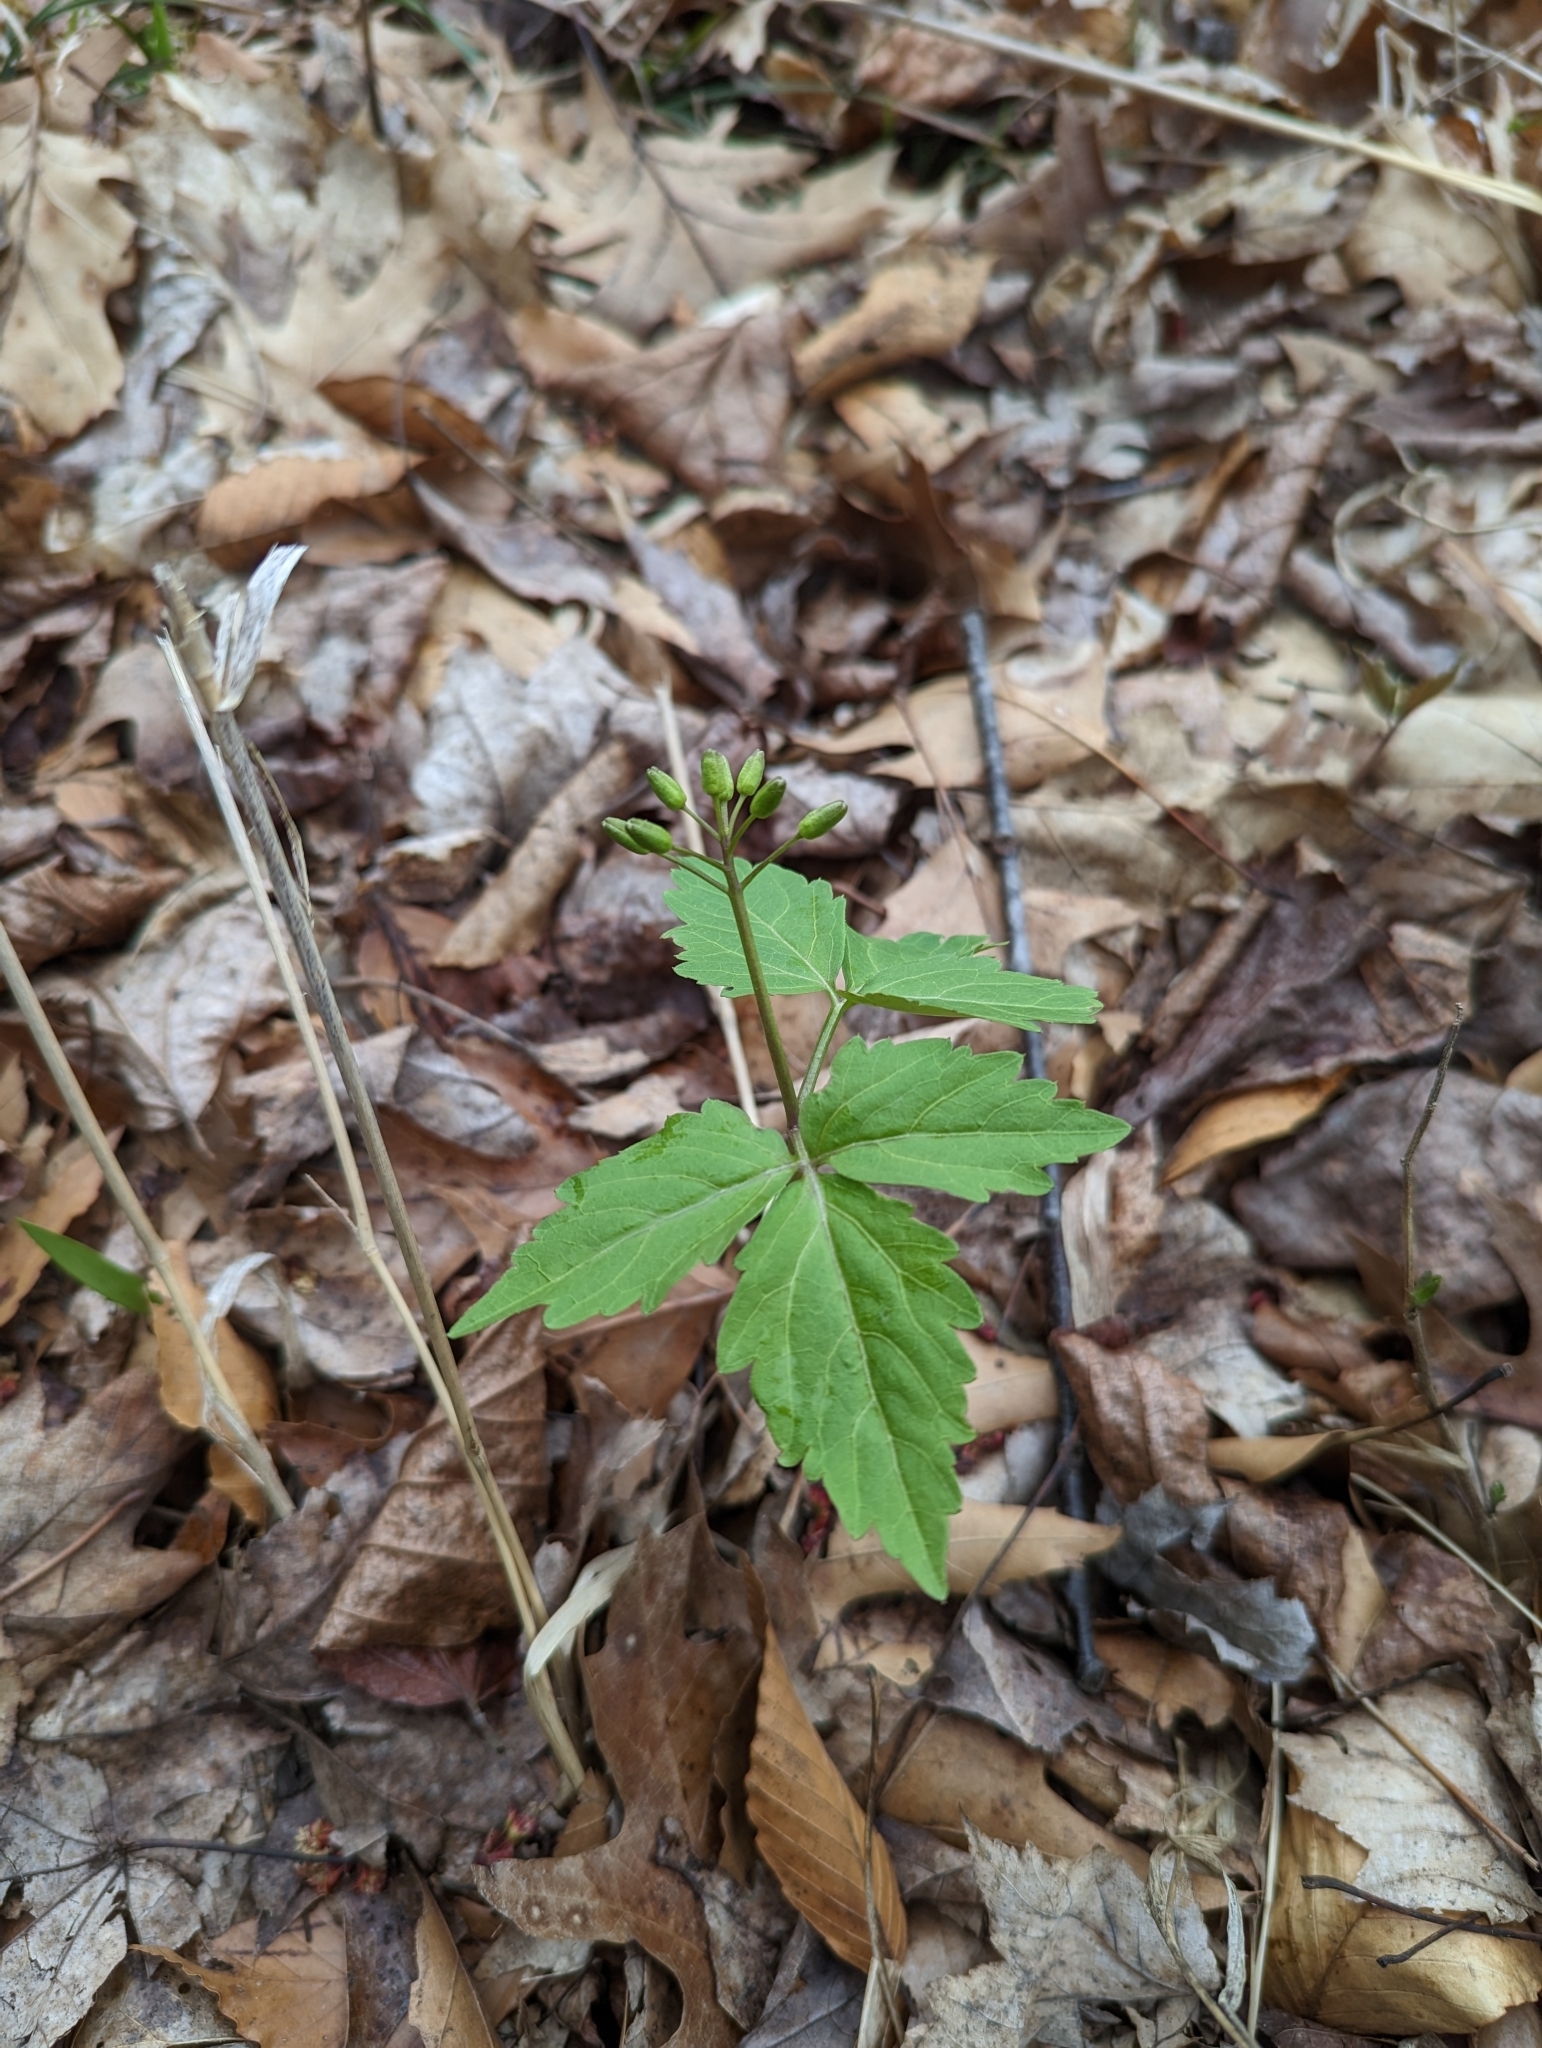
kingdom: Plantae
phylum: Tracheophyta
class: Magnoliopsida
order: Brassicales
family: Brassicaceae
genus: Cardamine
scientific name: Cardamine diphylla
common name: Broad-leaved toothwort
